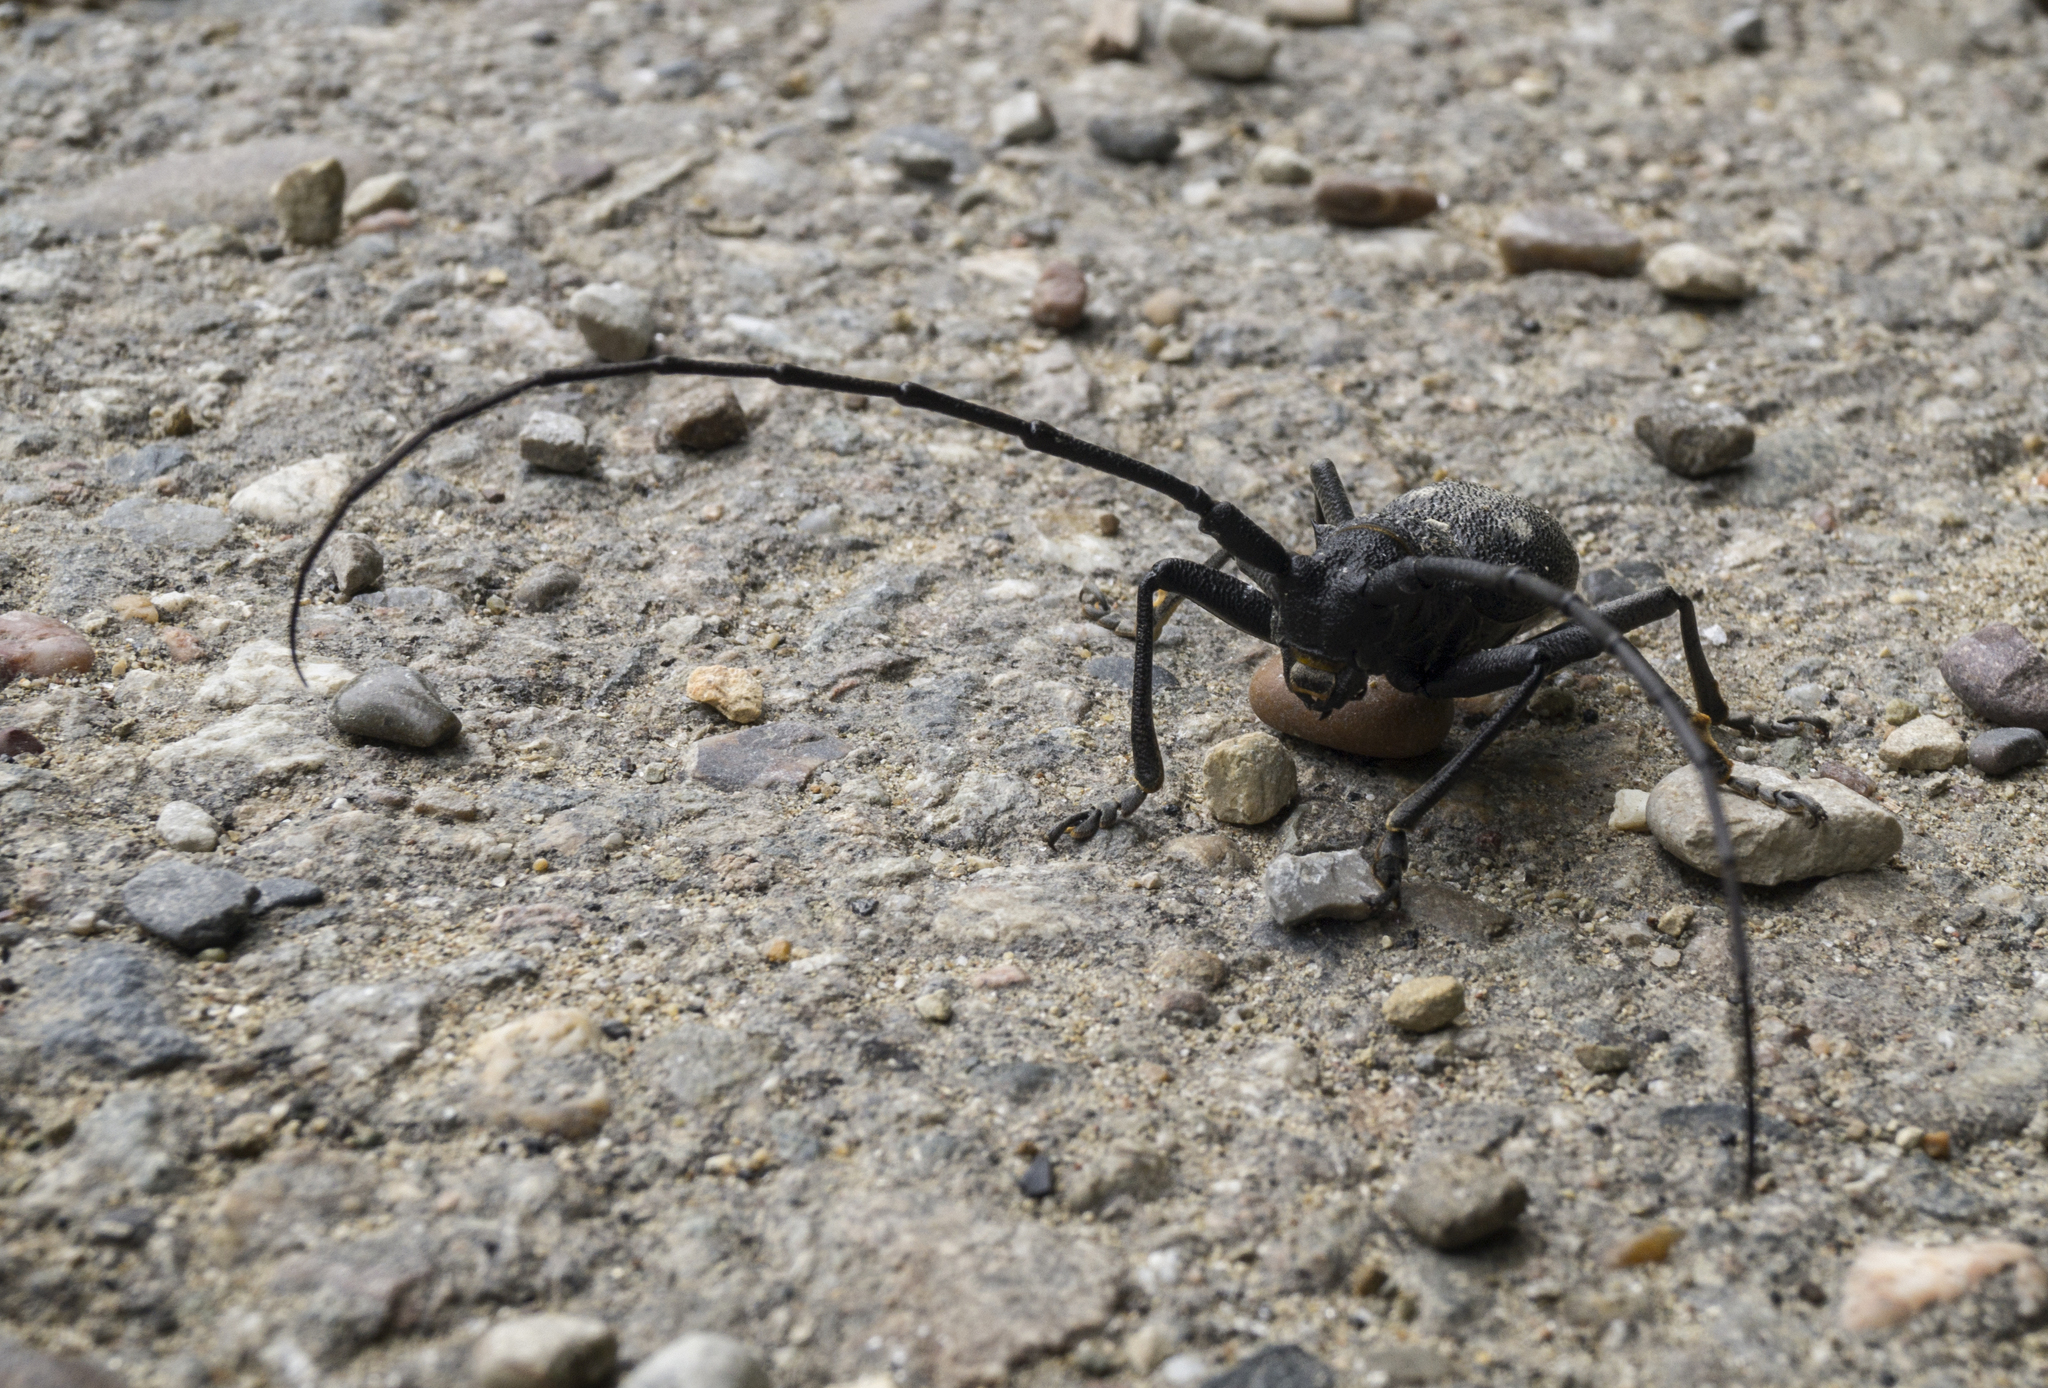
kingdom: Animalia
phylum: Arthropoda
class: Insecta
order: Coleoptera
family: Cerambycidae
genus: Morimus
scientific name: Morimus verecundus
